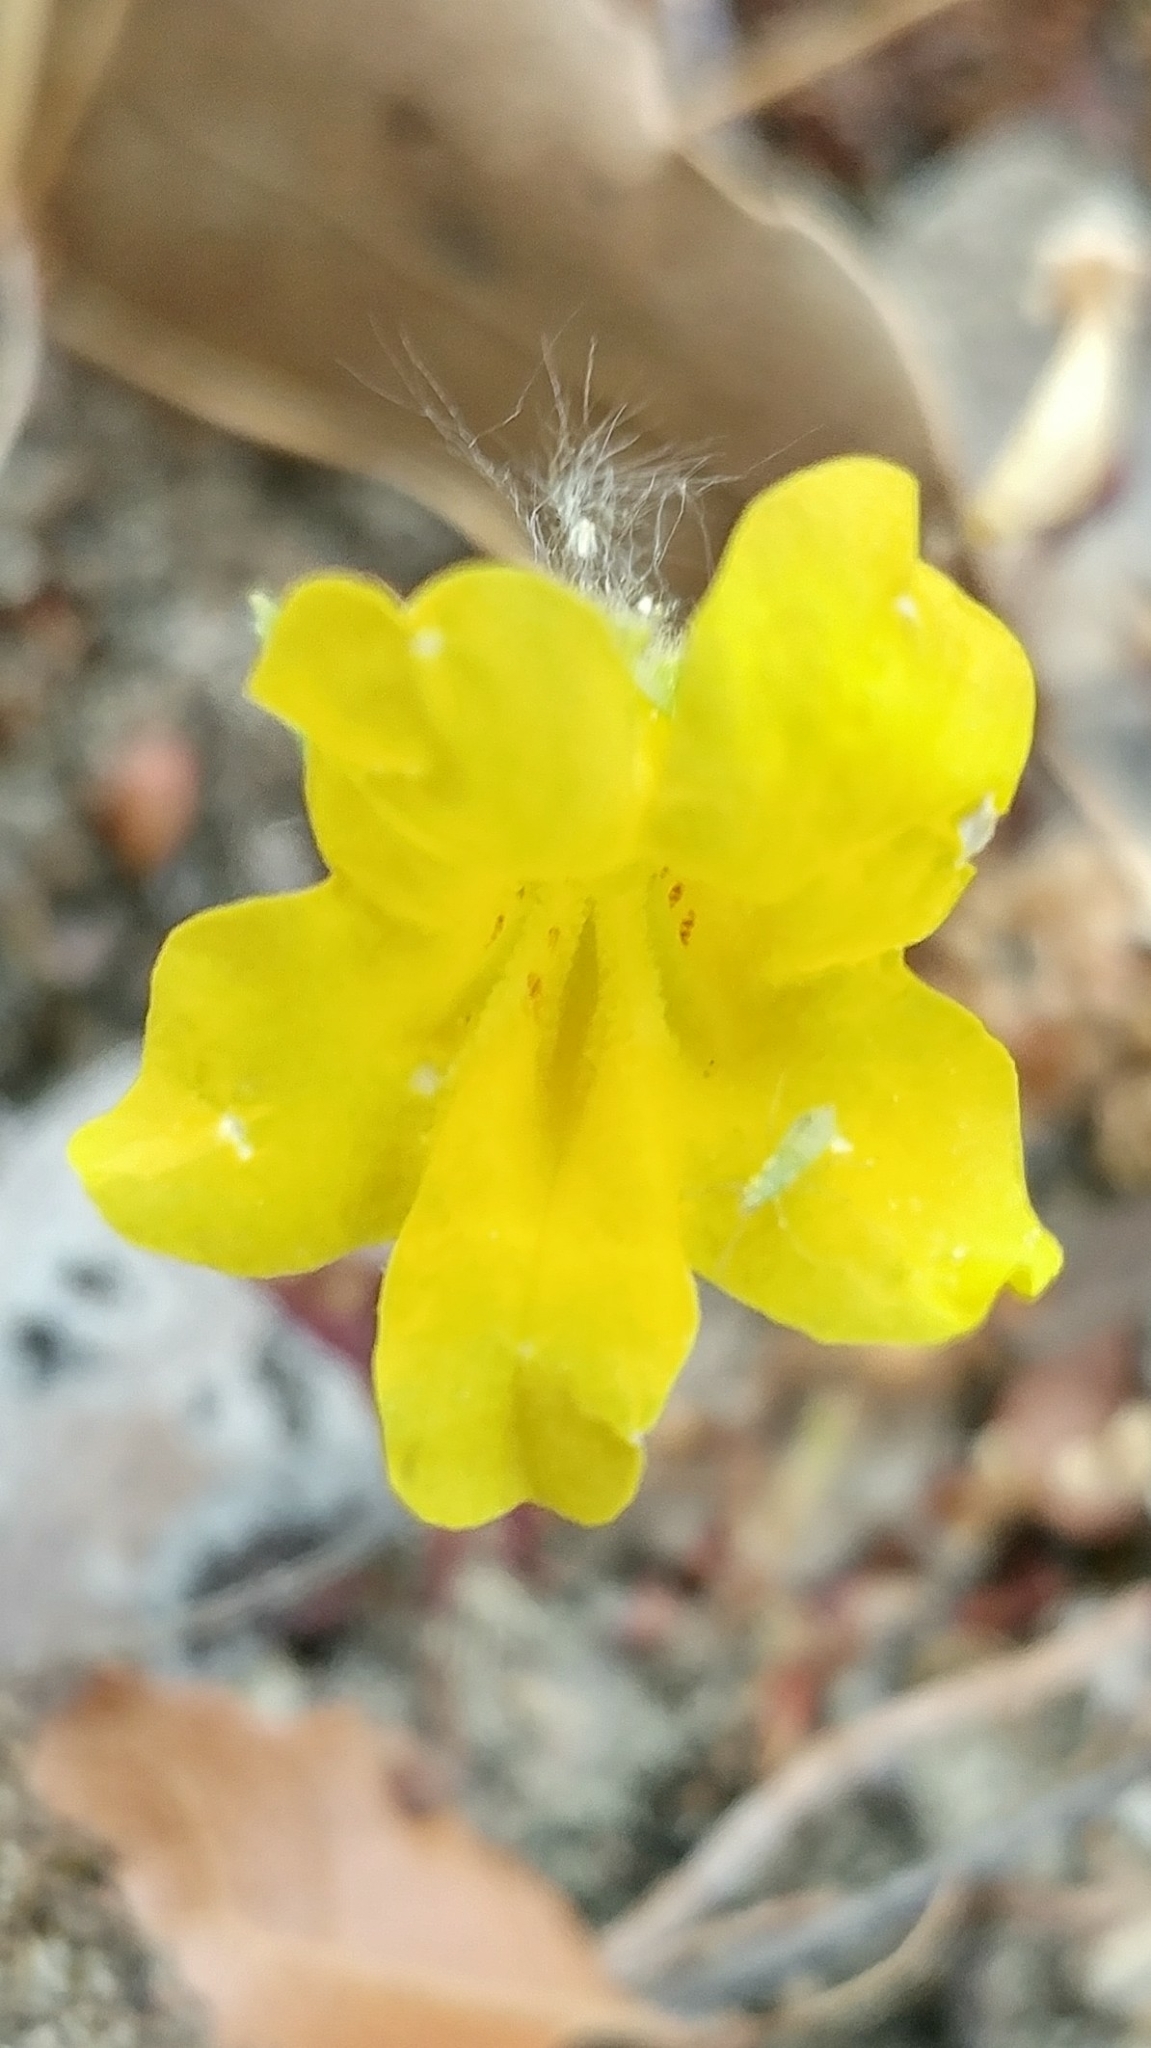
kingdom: Plantae
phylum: Tracheophyta
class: Magnoliopsida
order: Lamiales
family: Phrymaceae
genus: Diplacus
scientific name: Diplacus brevipes
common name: Wide-throat yellow monkey-flower
